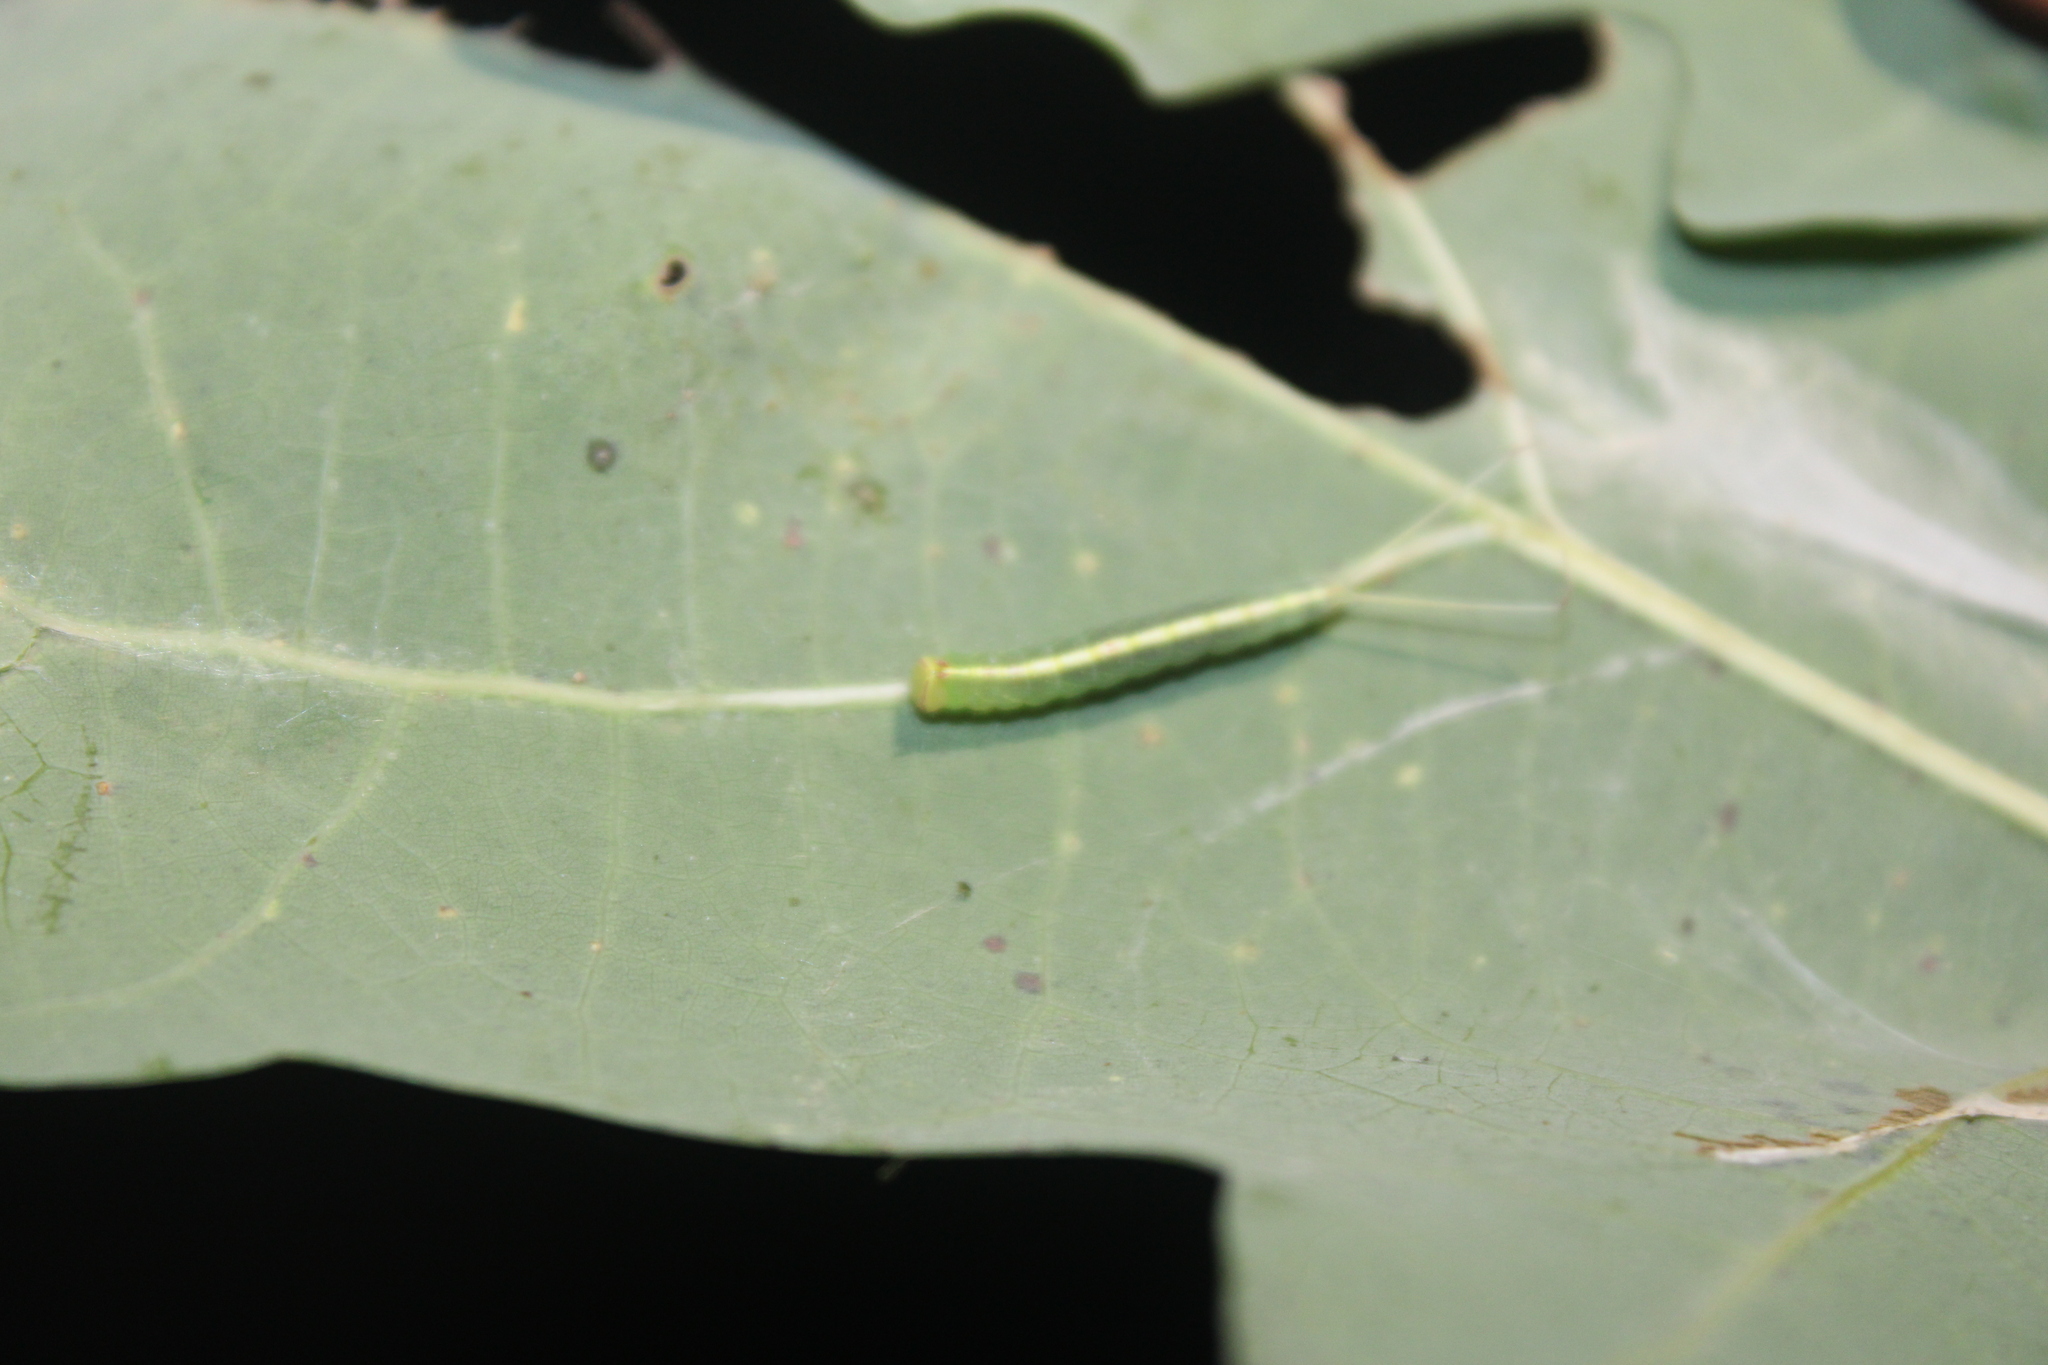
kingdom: Animalia
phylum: Arthropoda
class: Insecta
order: Lepidoptera
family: Notodontidae
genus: Macrurocampa
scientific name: Macrurocampa marthesia
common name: Mottled prominent
